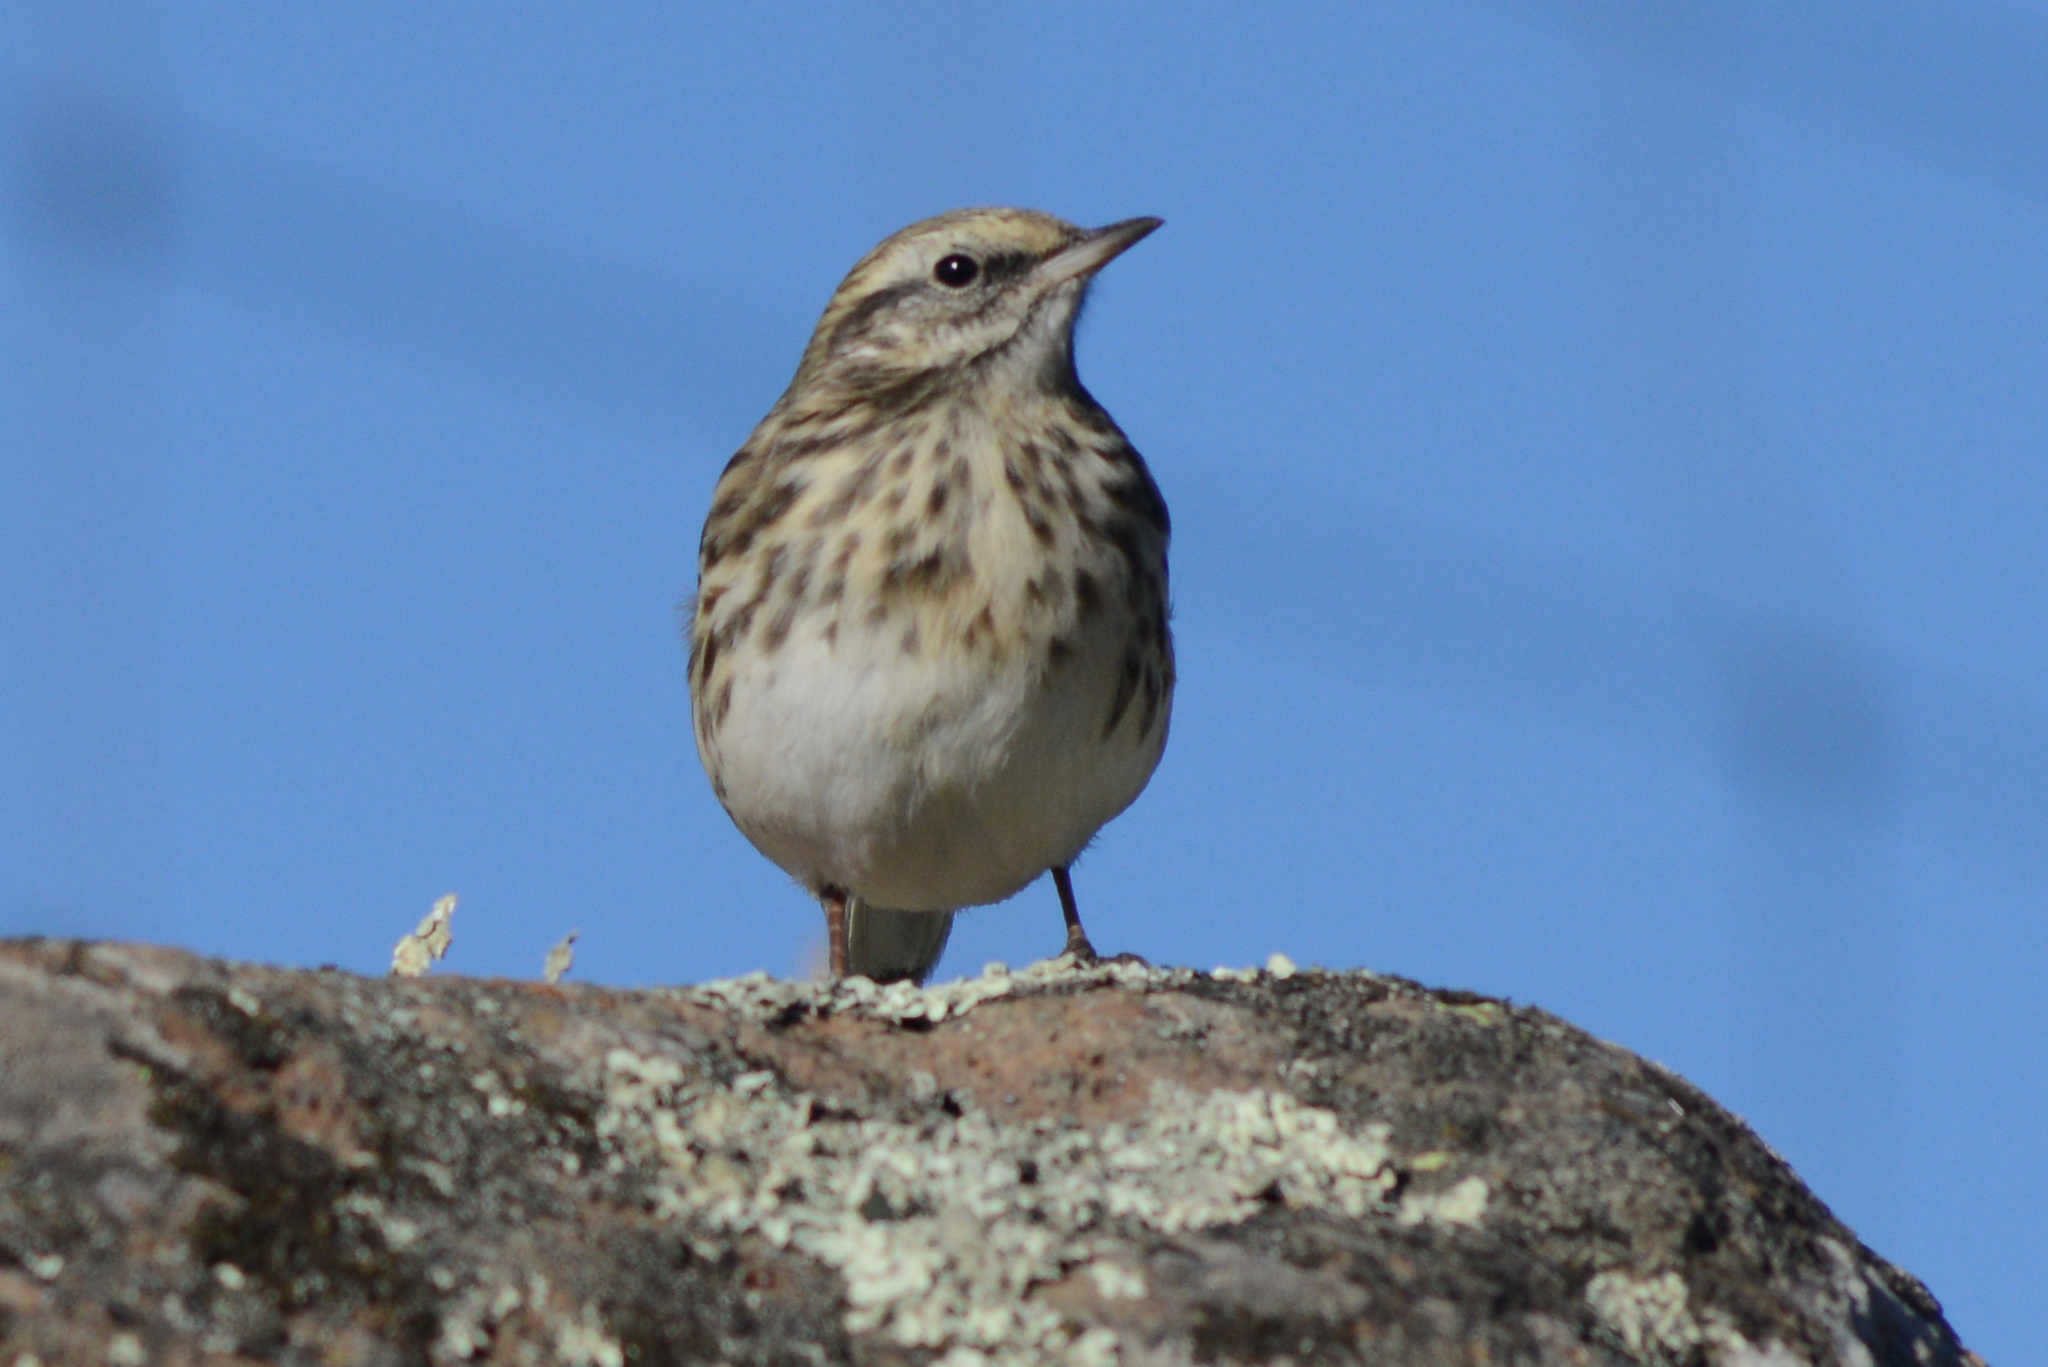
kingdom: Animalia
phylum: Chordata
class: Aves
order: Passeriformes
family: Motacillidae
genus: Anthus
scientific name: Anthus novaeseelandiae
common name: New zealand pipit
